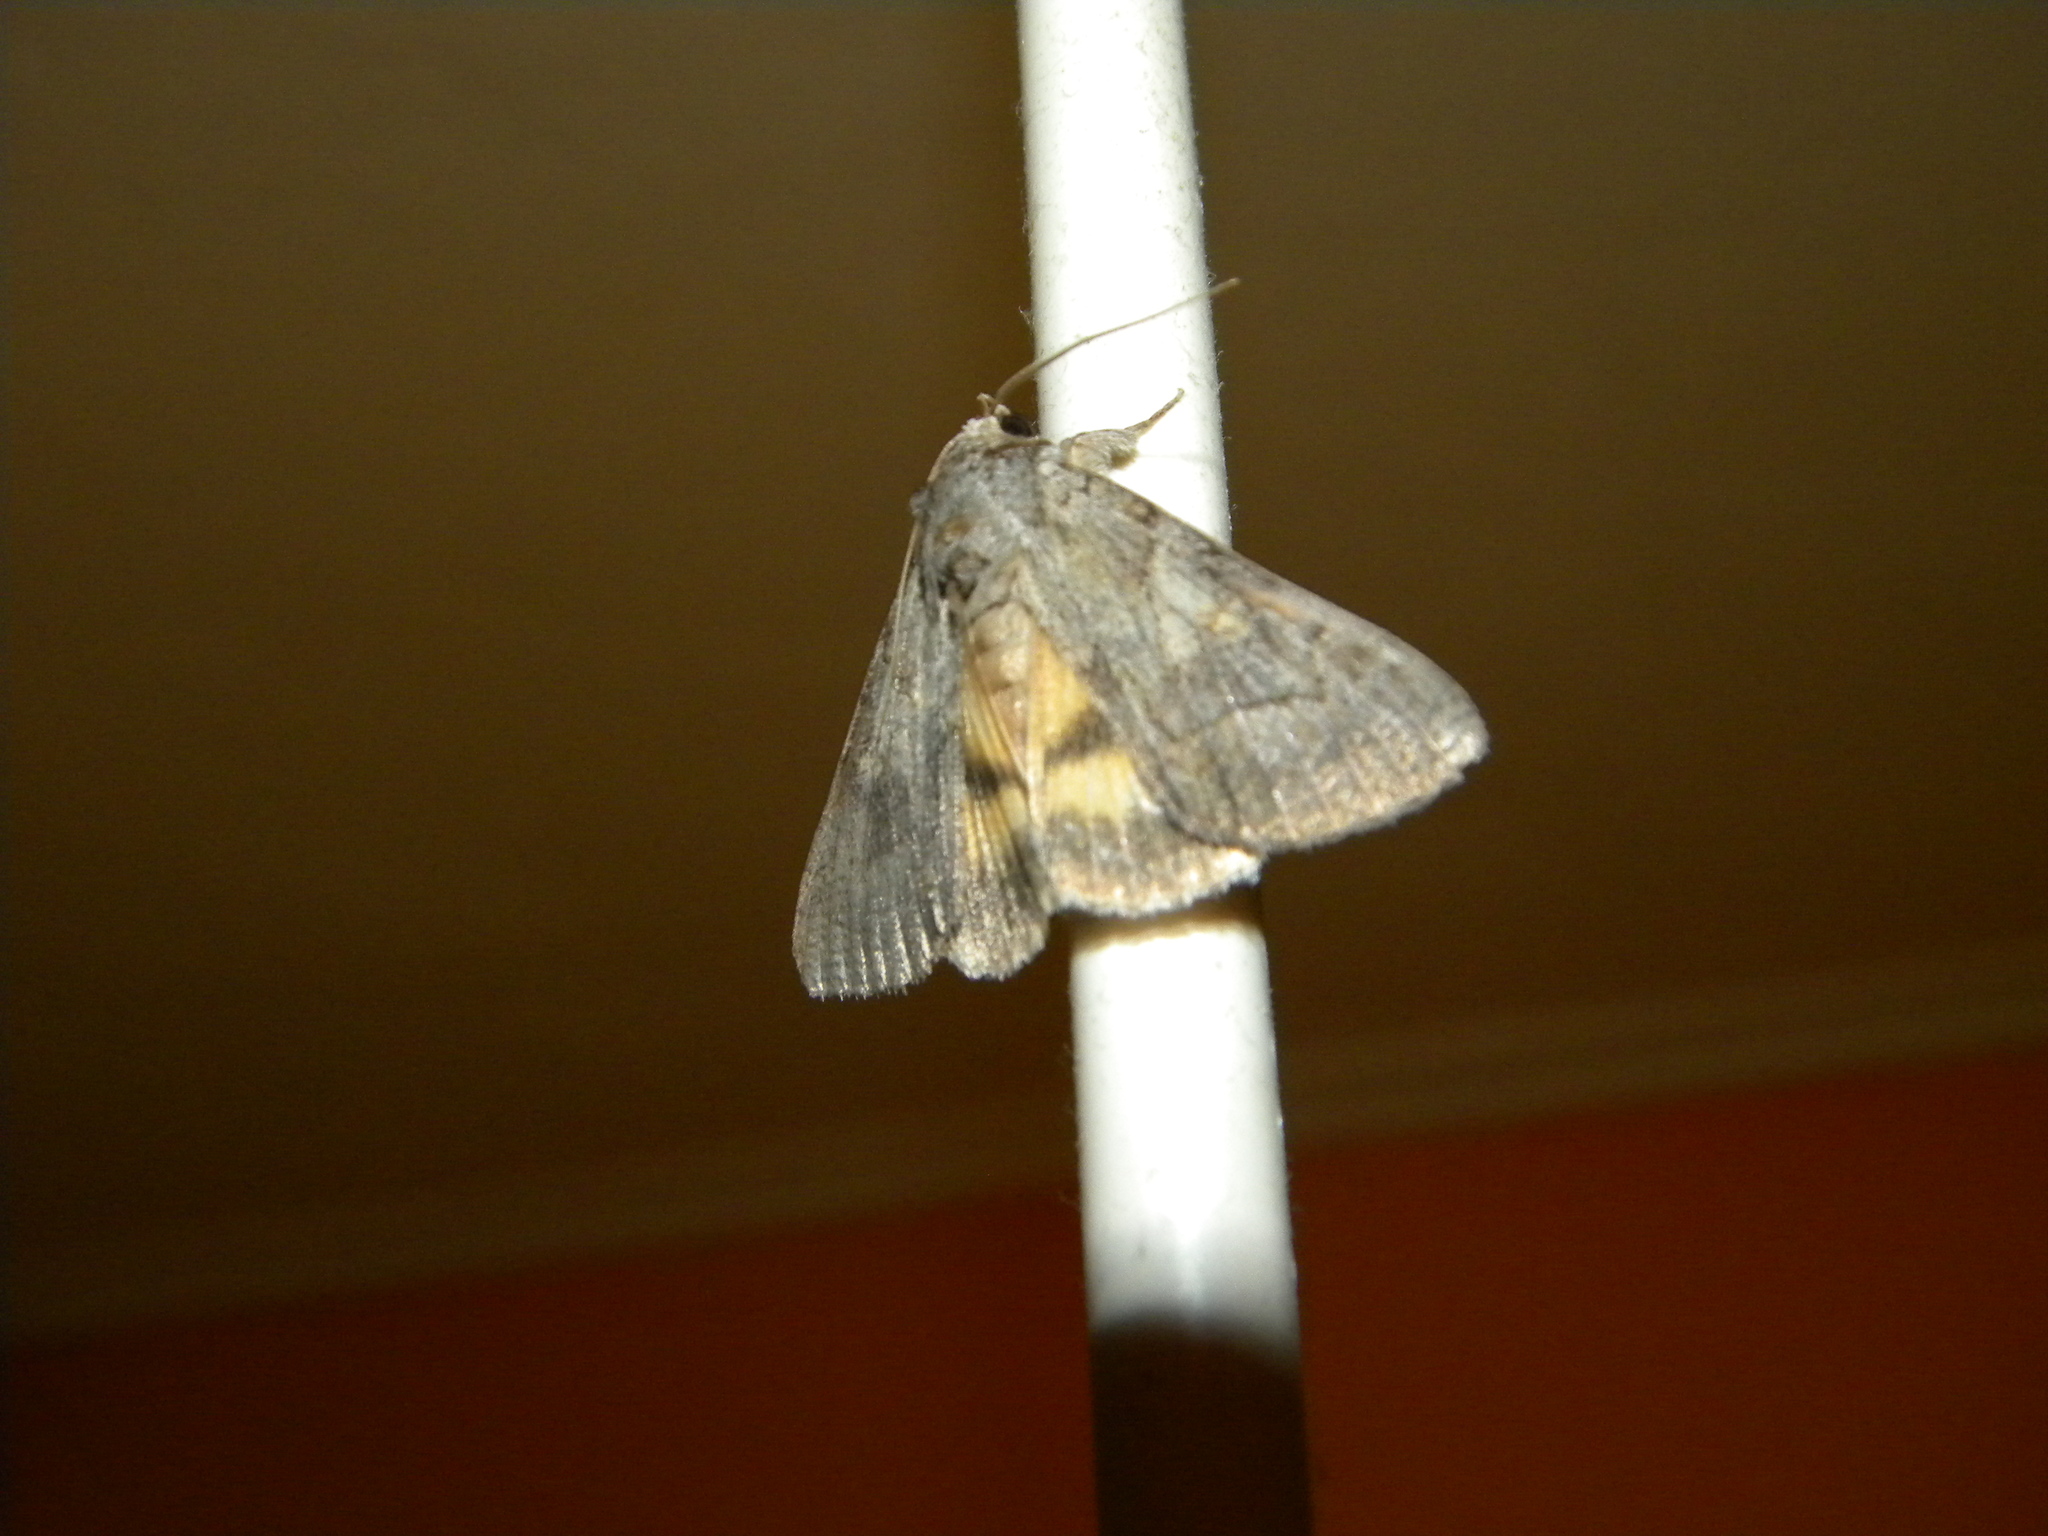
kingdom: Animalia
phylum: Arthropoda
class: Insecta
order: Lepidoptera
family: Erebidae
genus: Catocala
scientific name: Catocala eutychea
